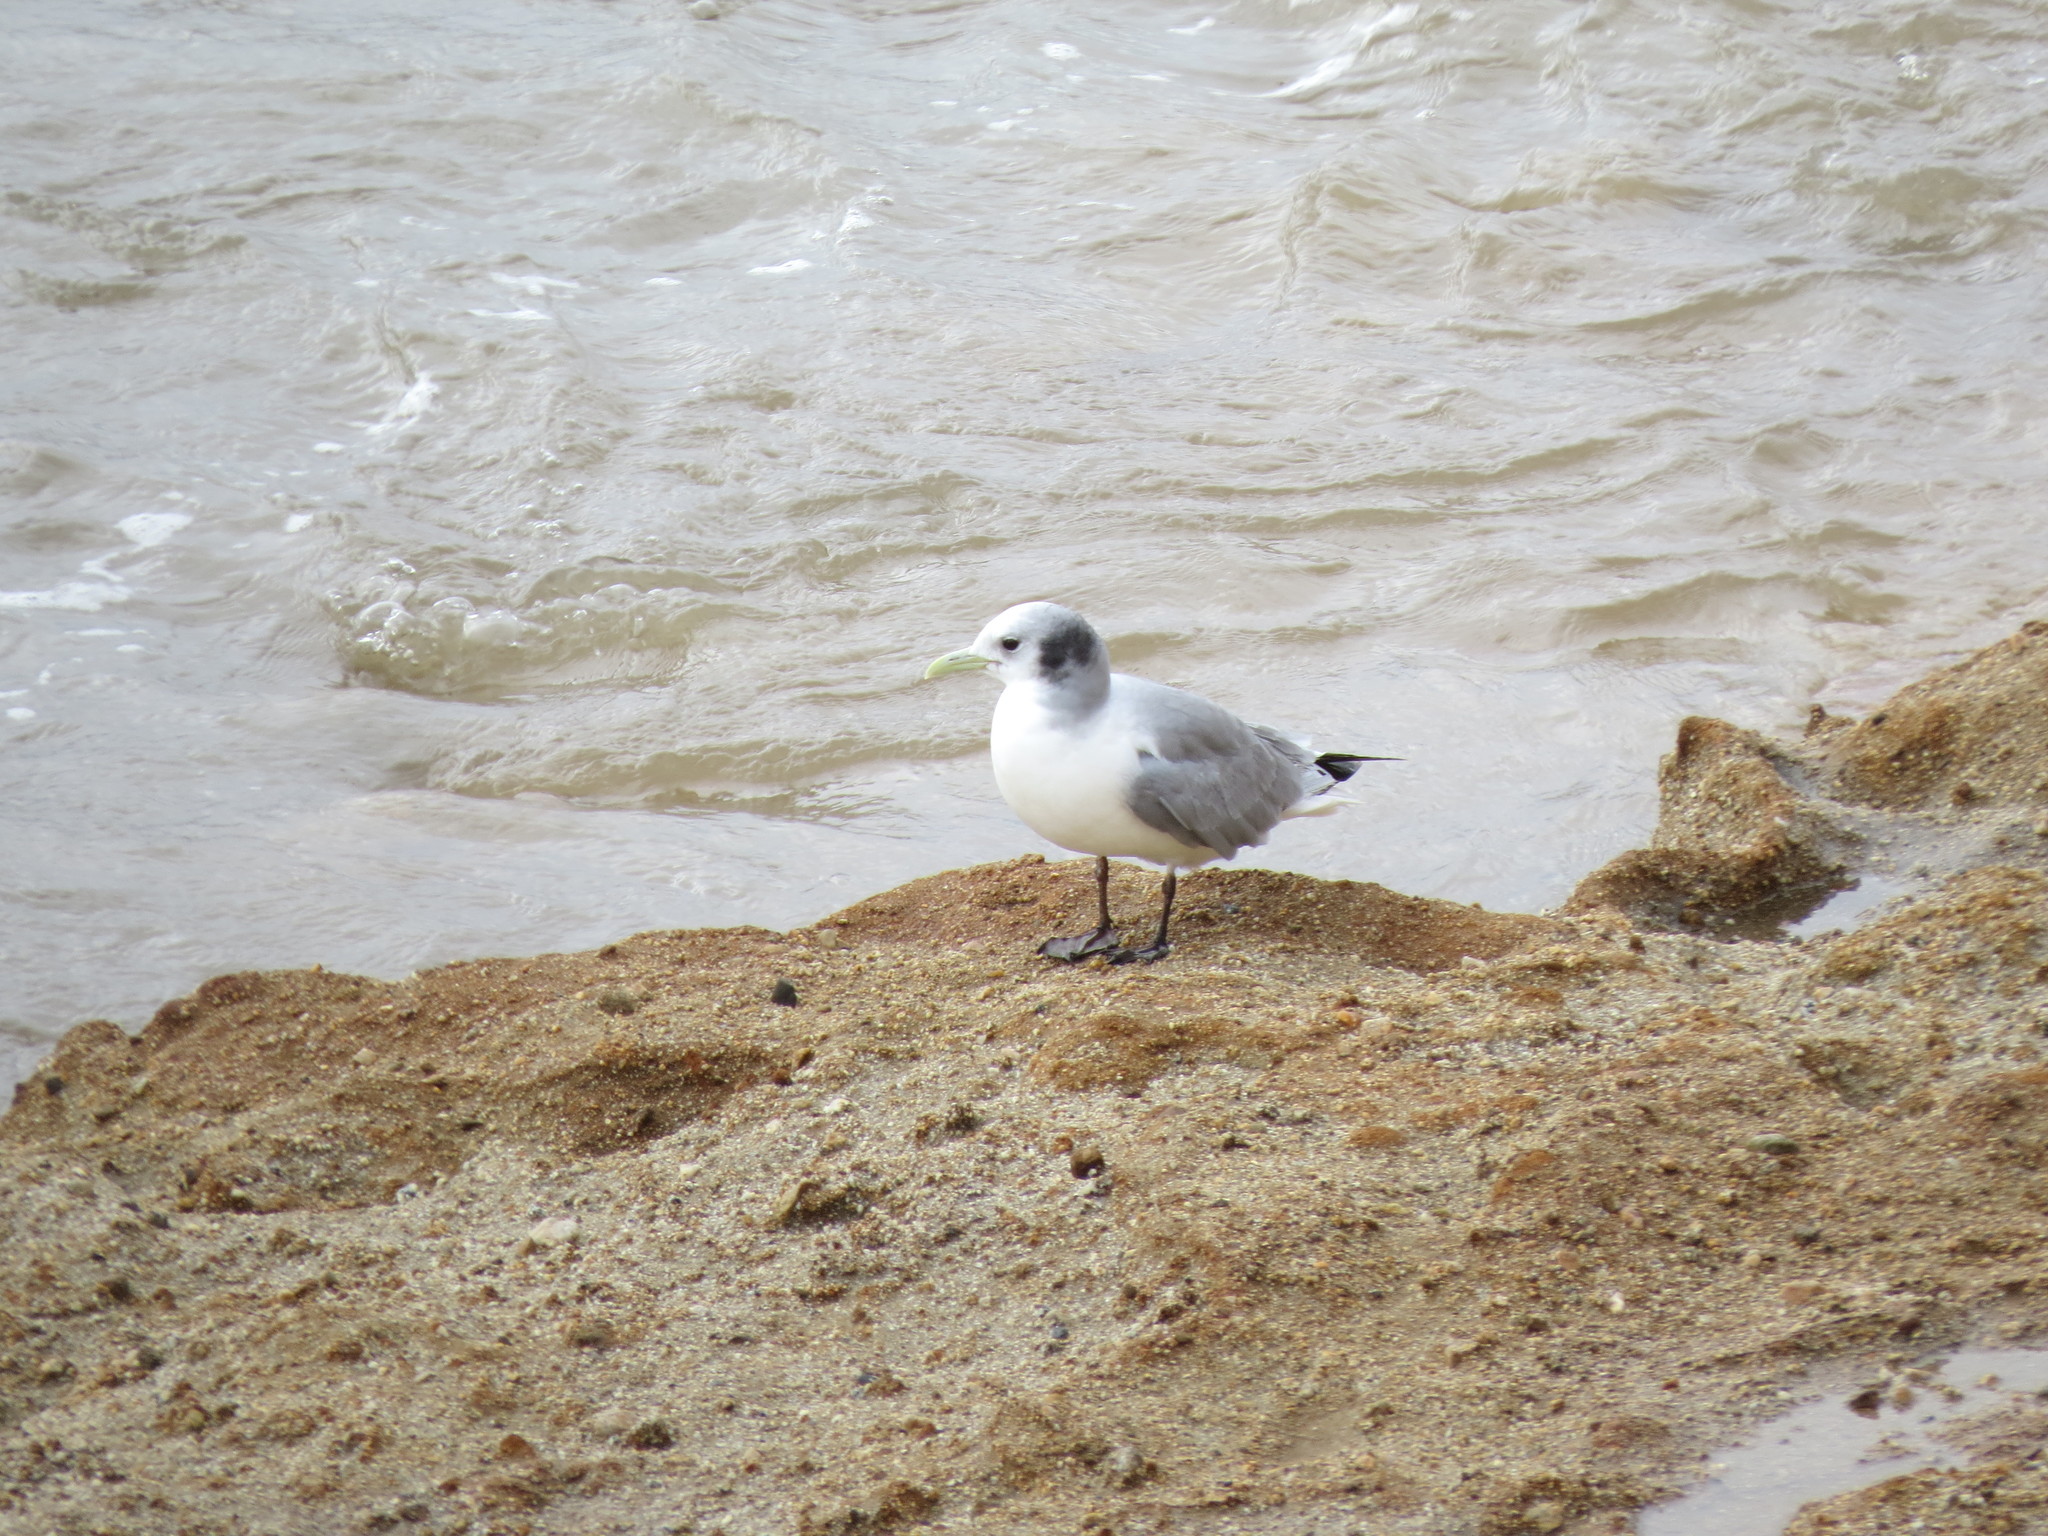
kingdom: Animalia
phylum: Chordata
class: Aves
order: Charadriiformes
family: Laridae
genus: Rissa
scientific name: Rissa tridactyla
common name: Black-legged kittiwake
